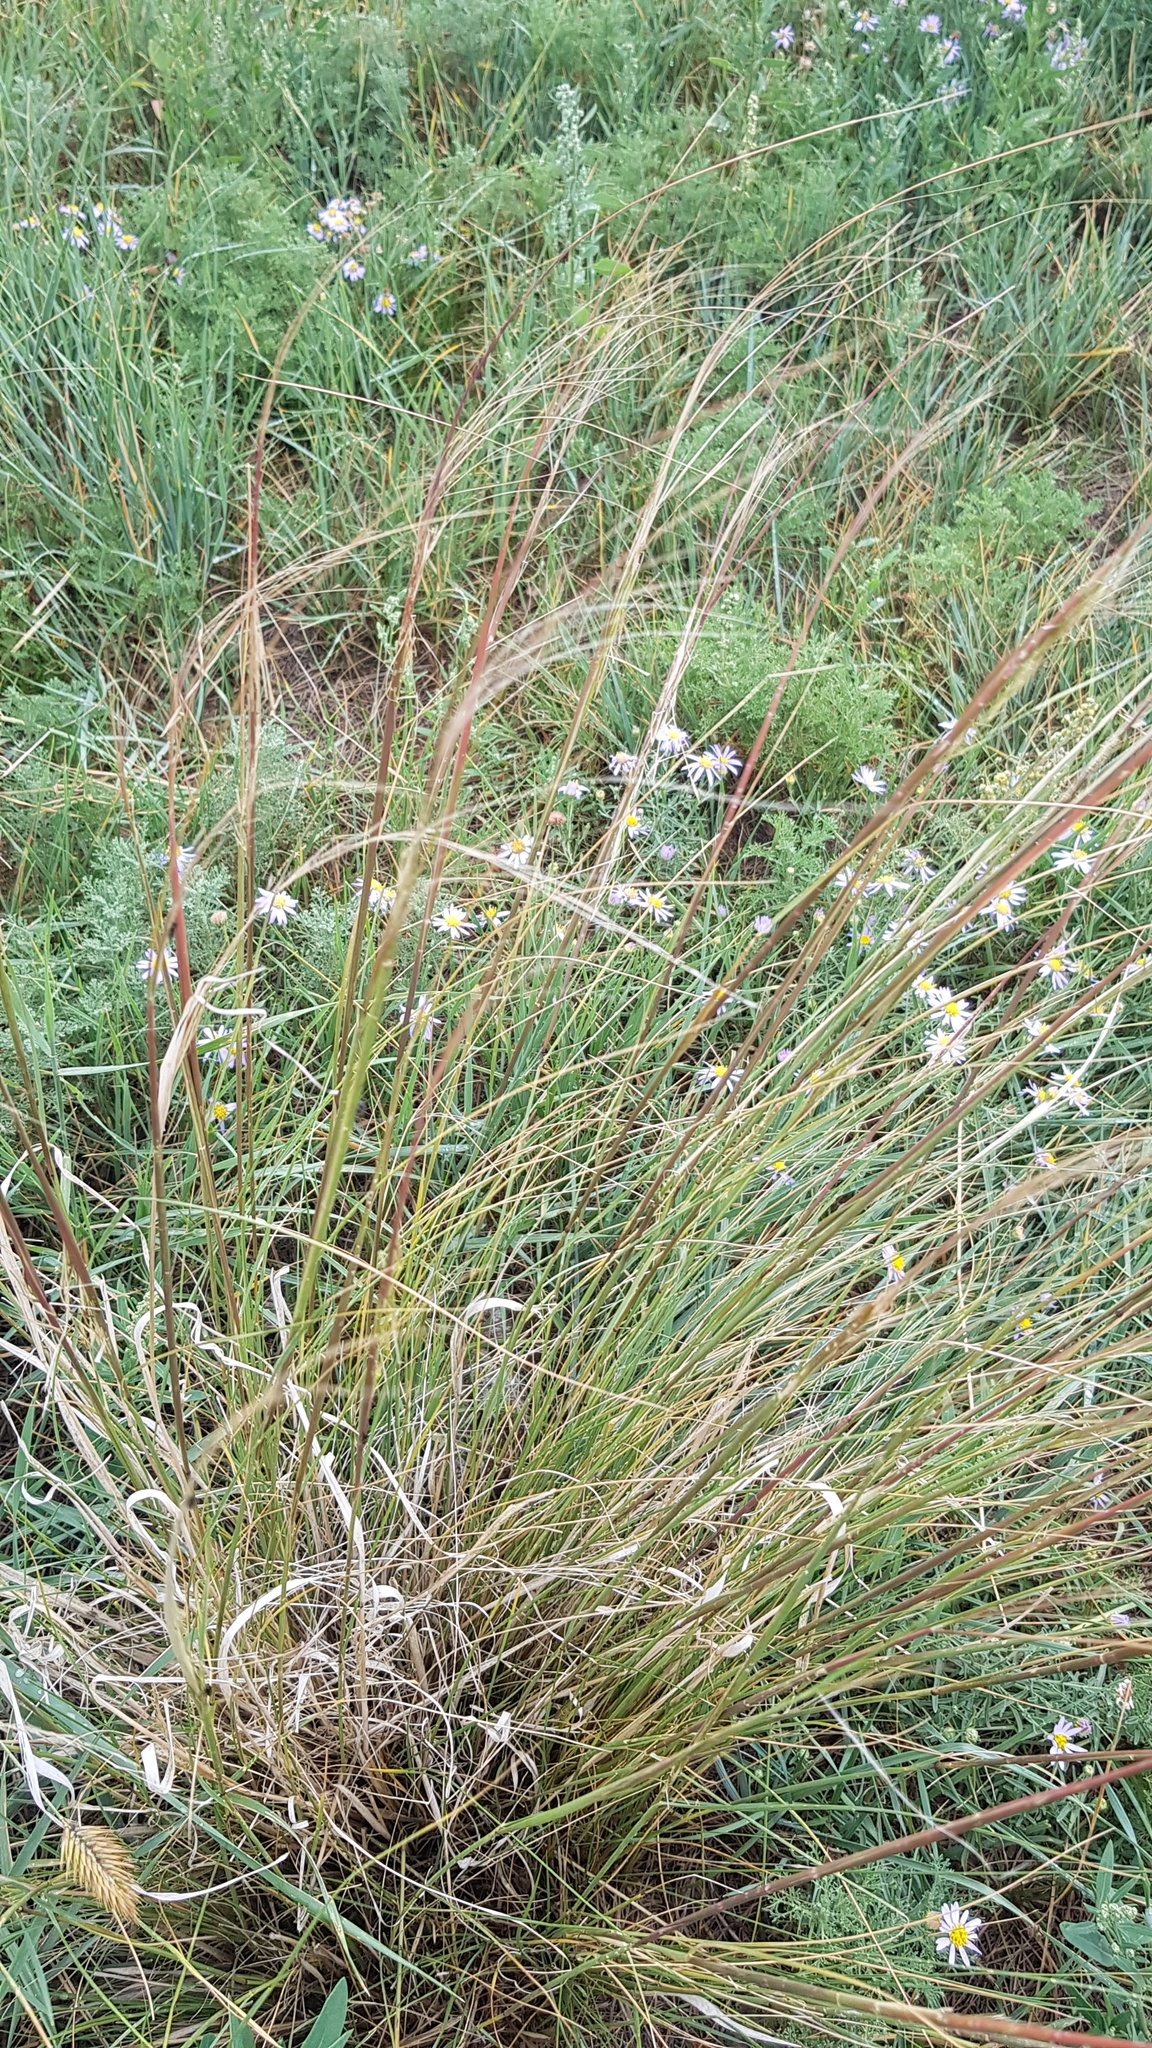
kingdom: Plantae
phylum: Tracheophyta
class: Liliopsida
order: Poales
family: Poaceae
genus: Stipa
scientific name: Stipa krylovii
